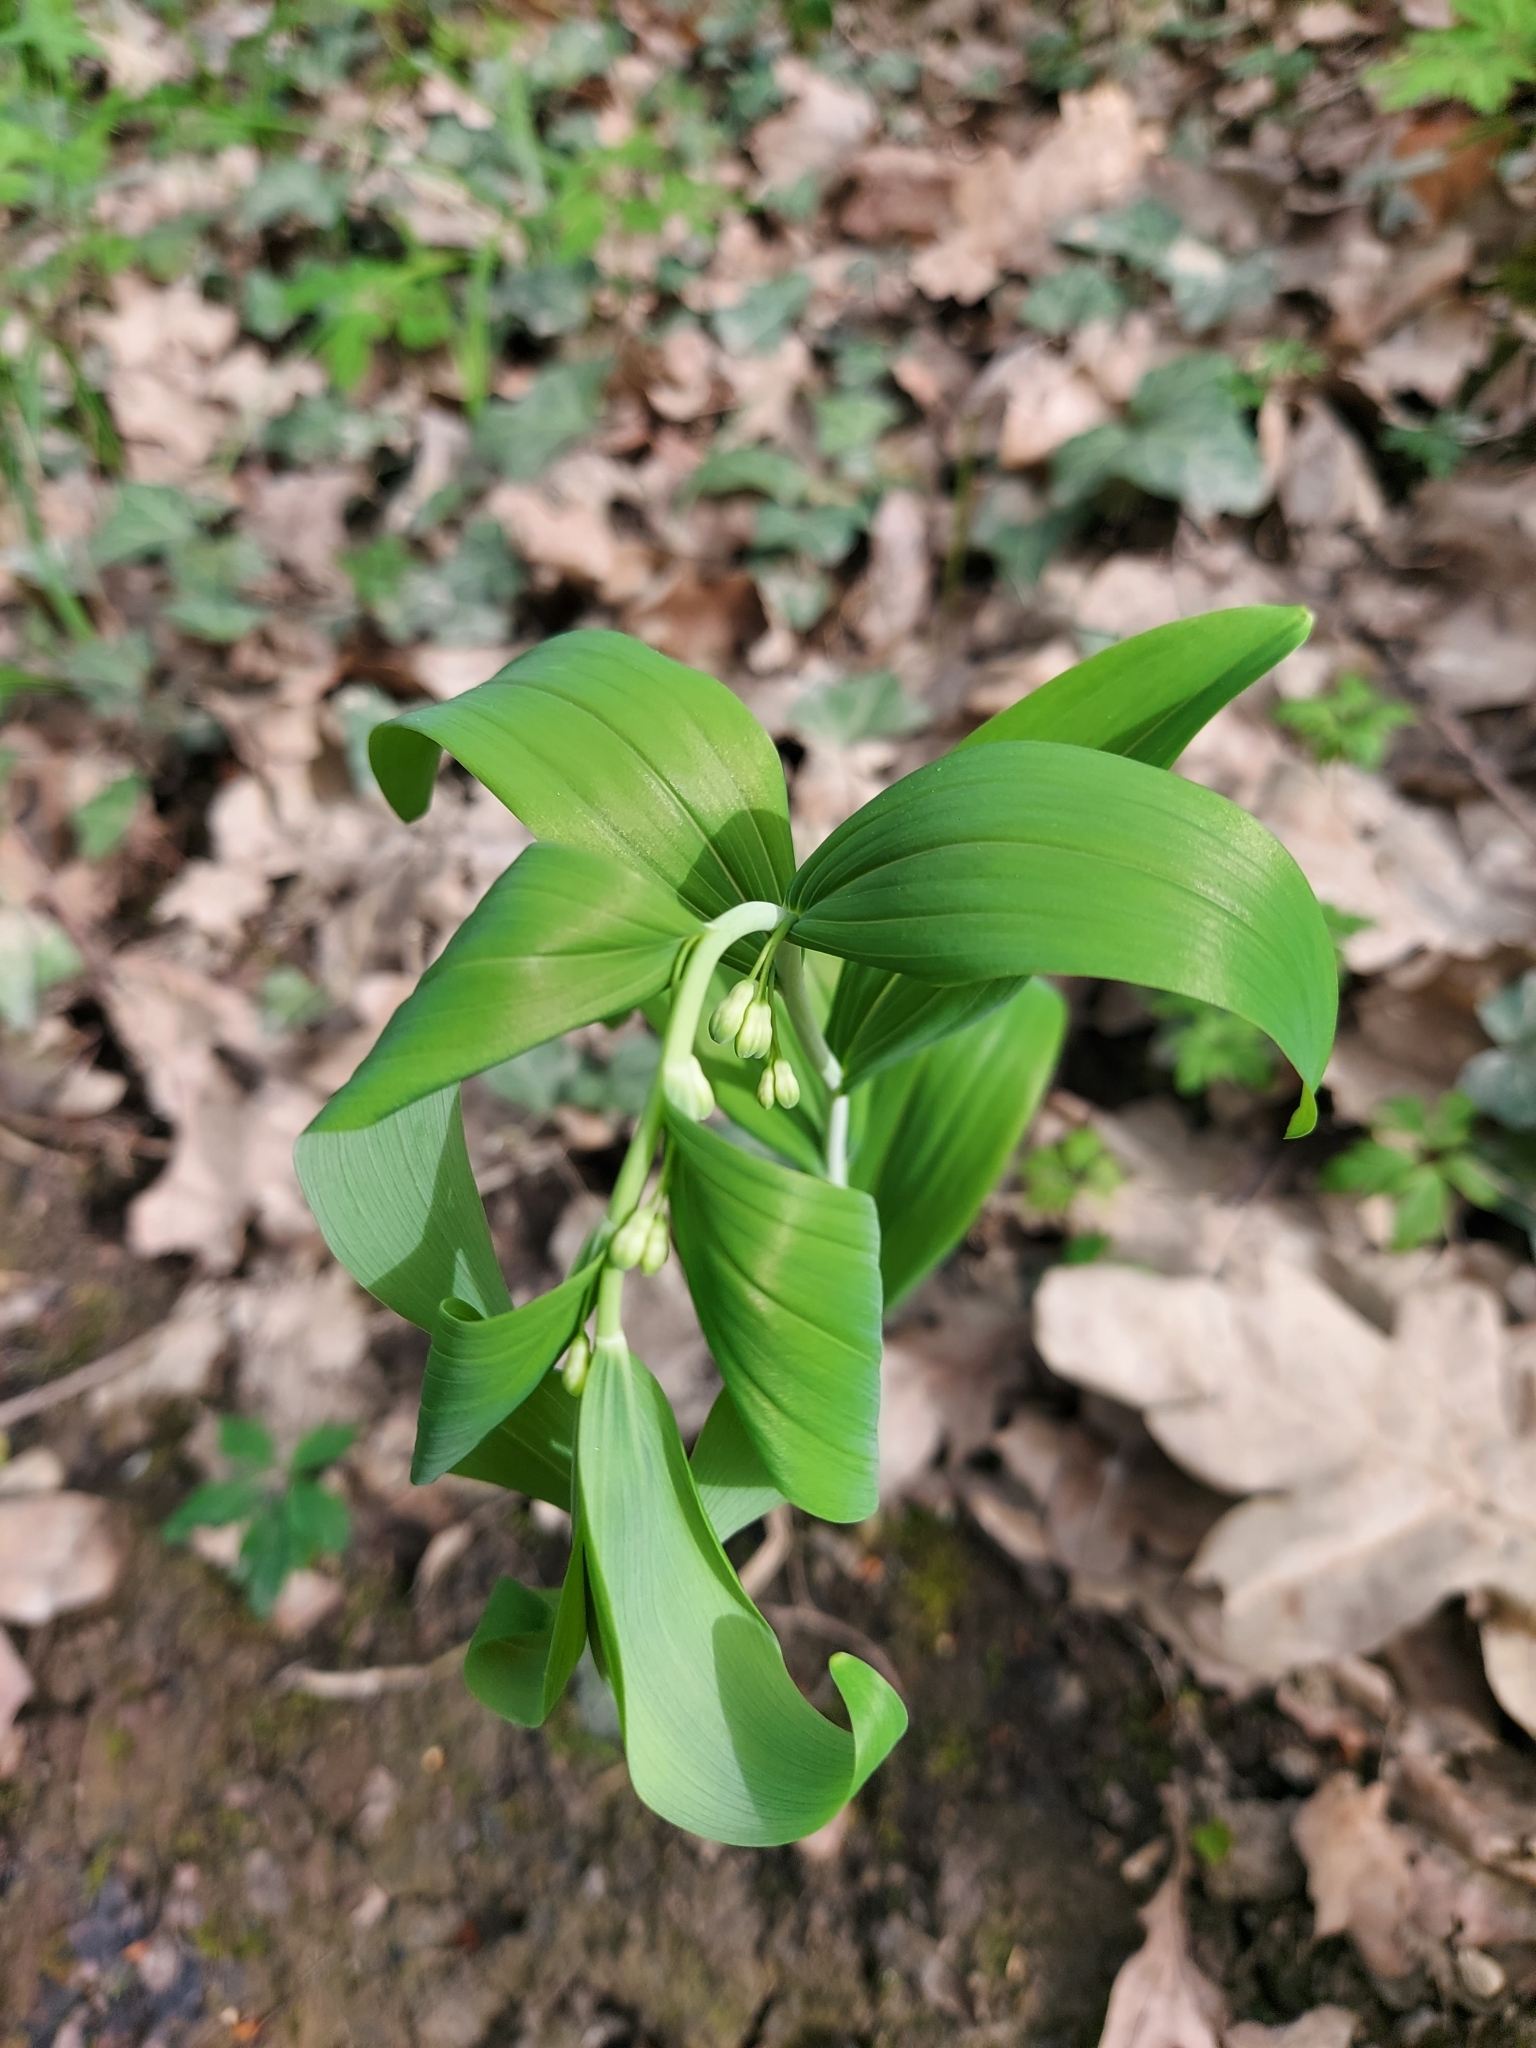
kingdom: Plantae
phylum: Tracheophyta
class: Liliopsida
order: Asparagales
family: Asparagaceae
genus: Polygonatum
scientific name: Polygonatum multiflorum
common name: Solomon's-seal
